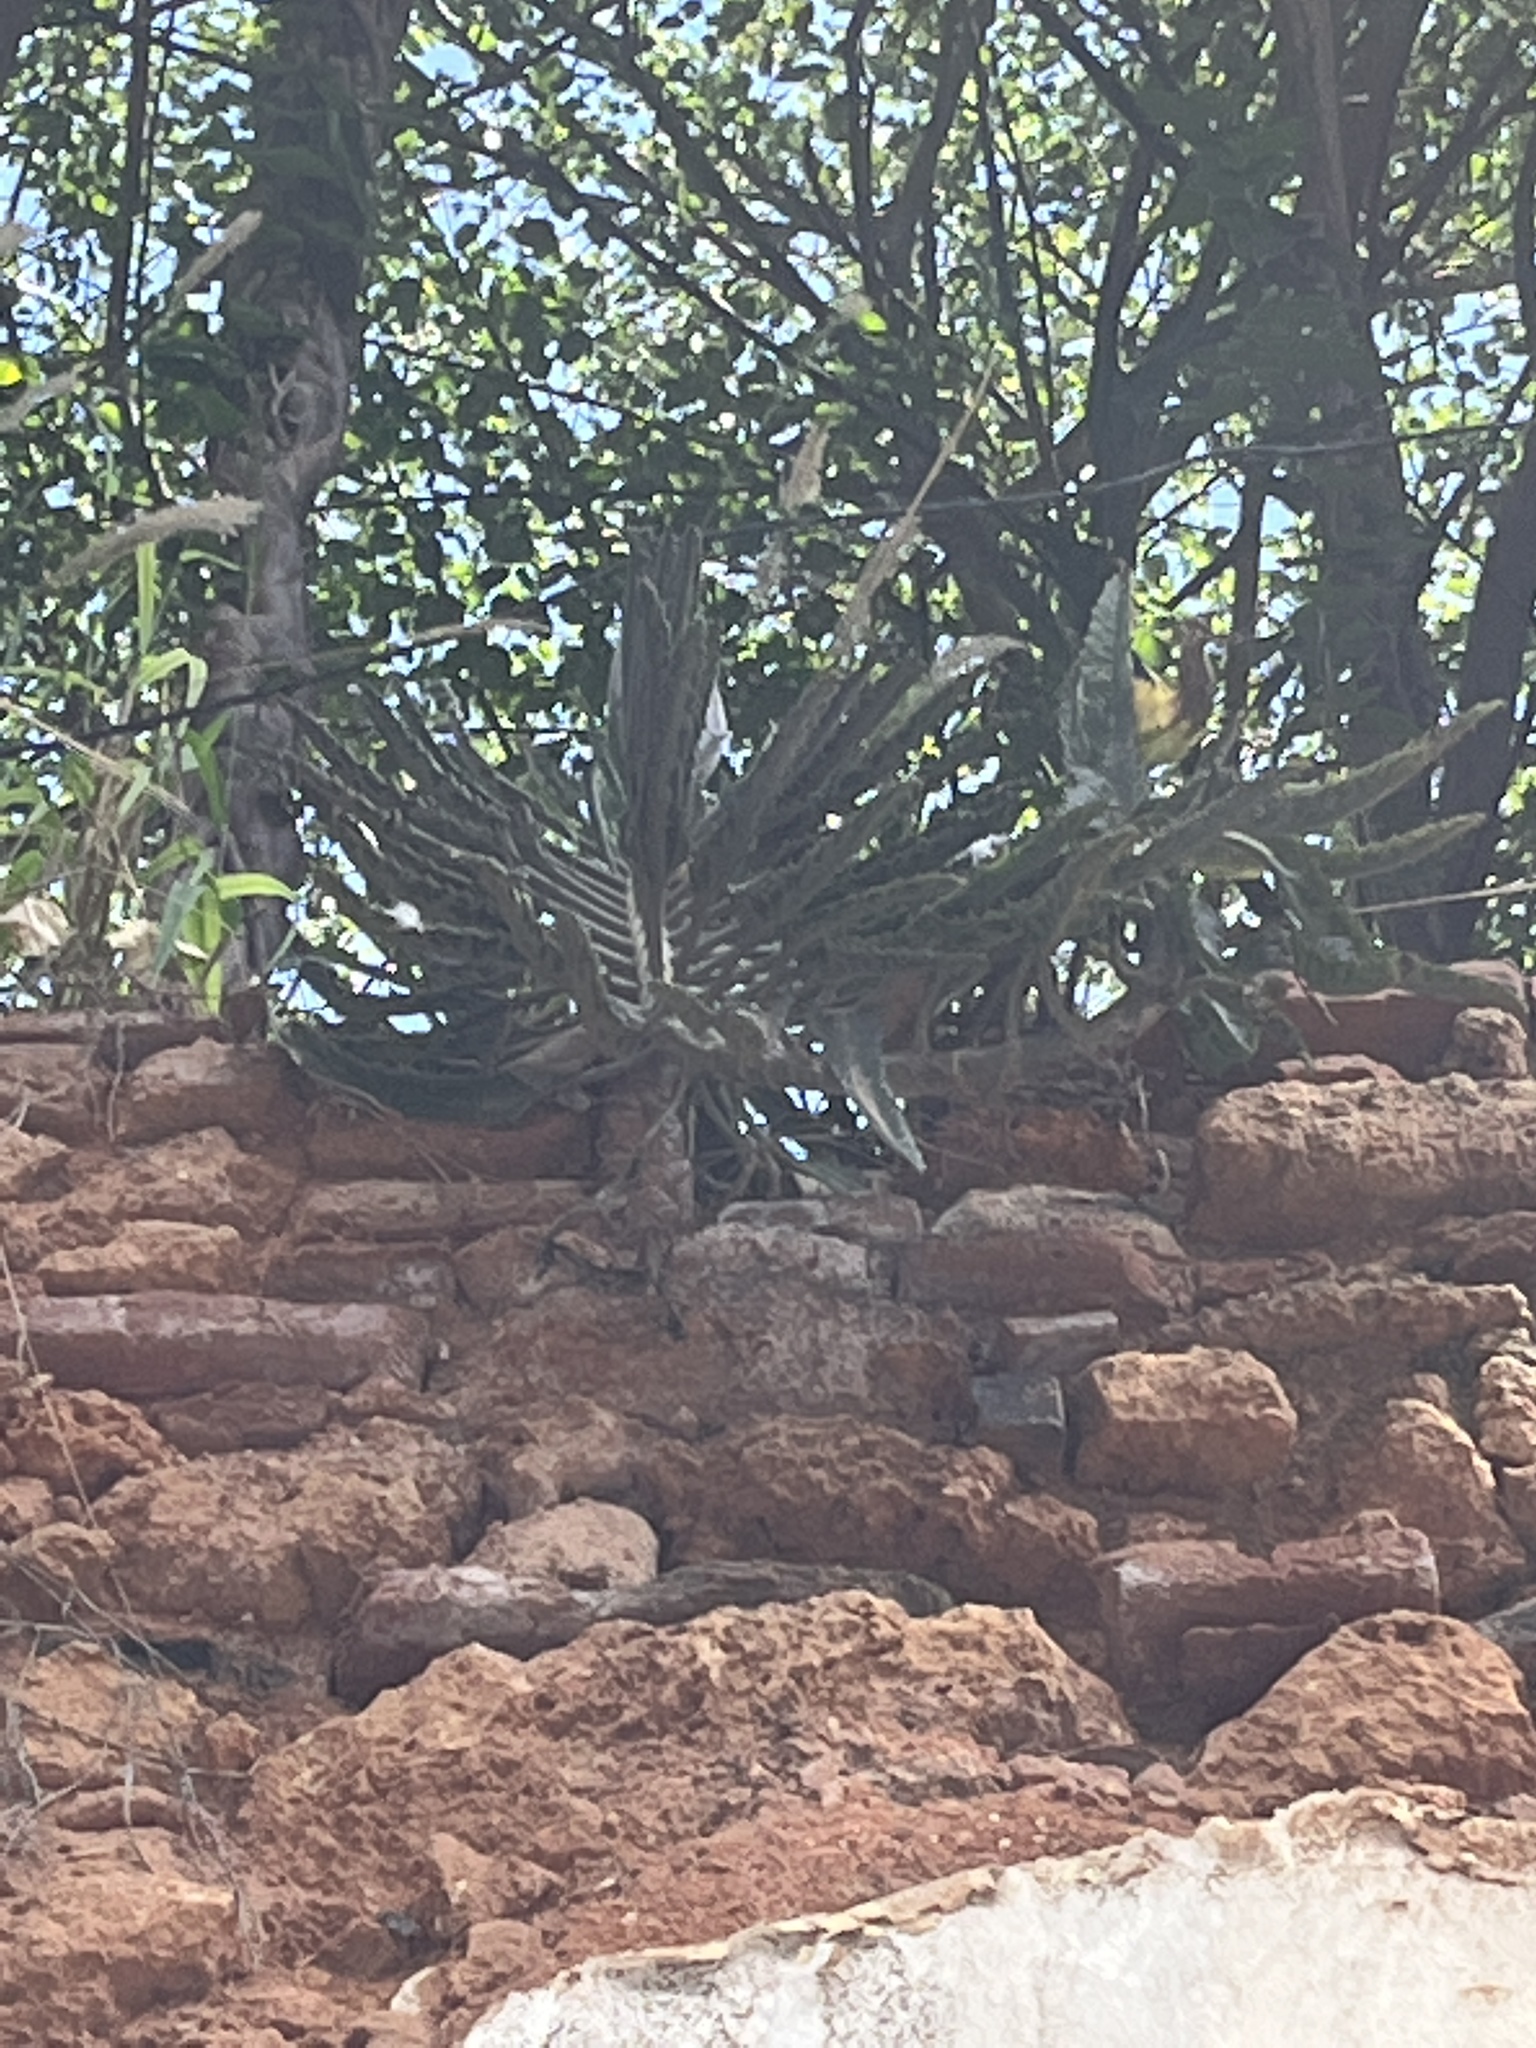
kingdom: Plantae
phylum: Tracheophyta
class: Magnoliopsida
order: Saxifragales
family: Crassulaceae
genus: Kalanchoe
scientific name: Kalanchoe houghtonii
